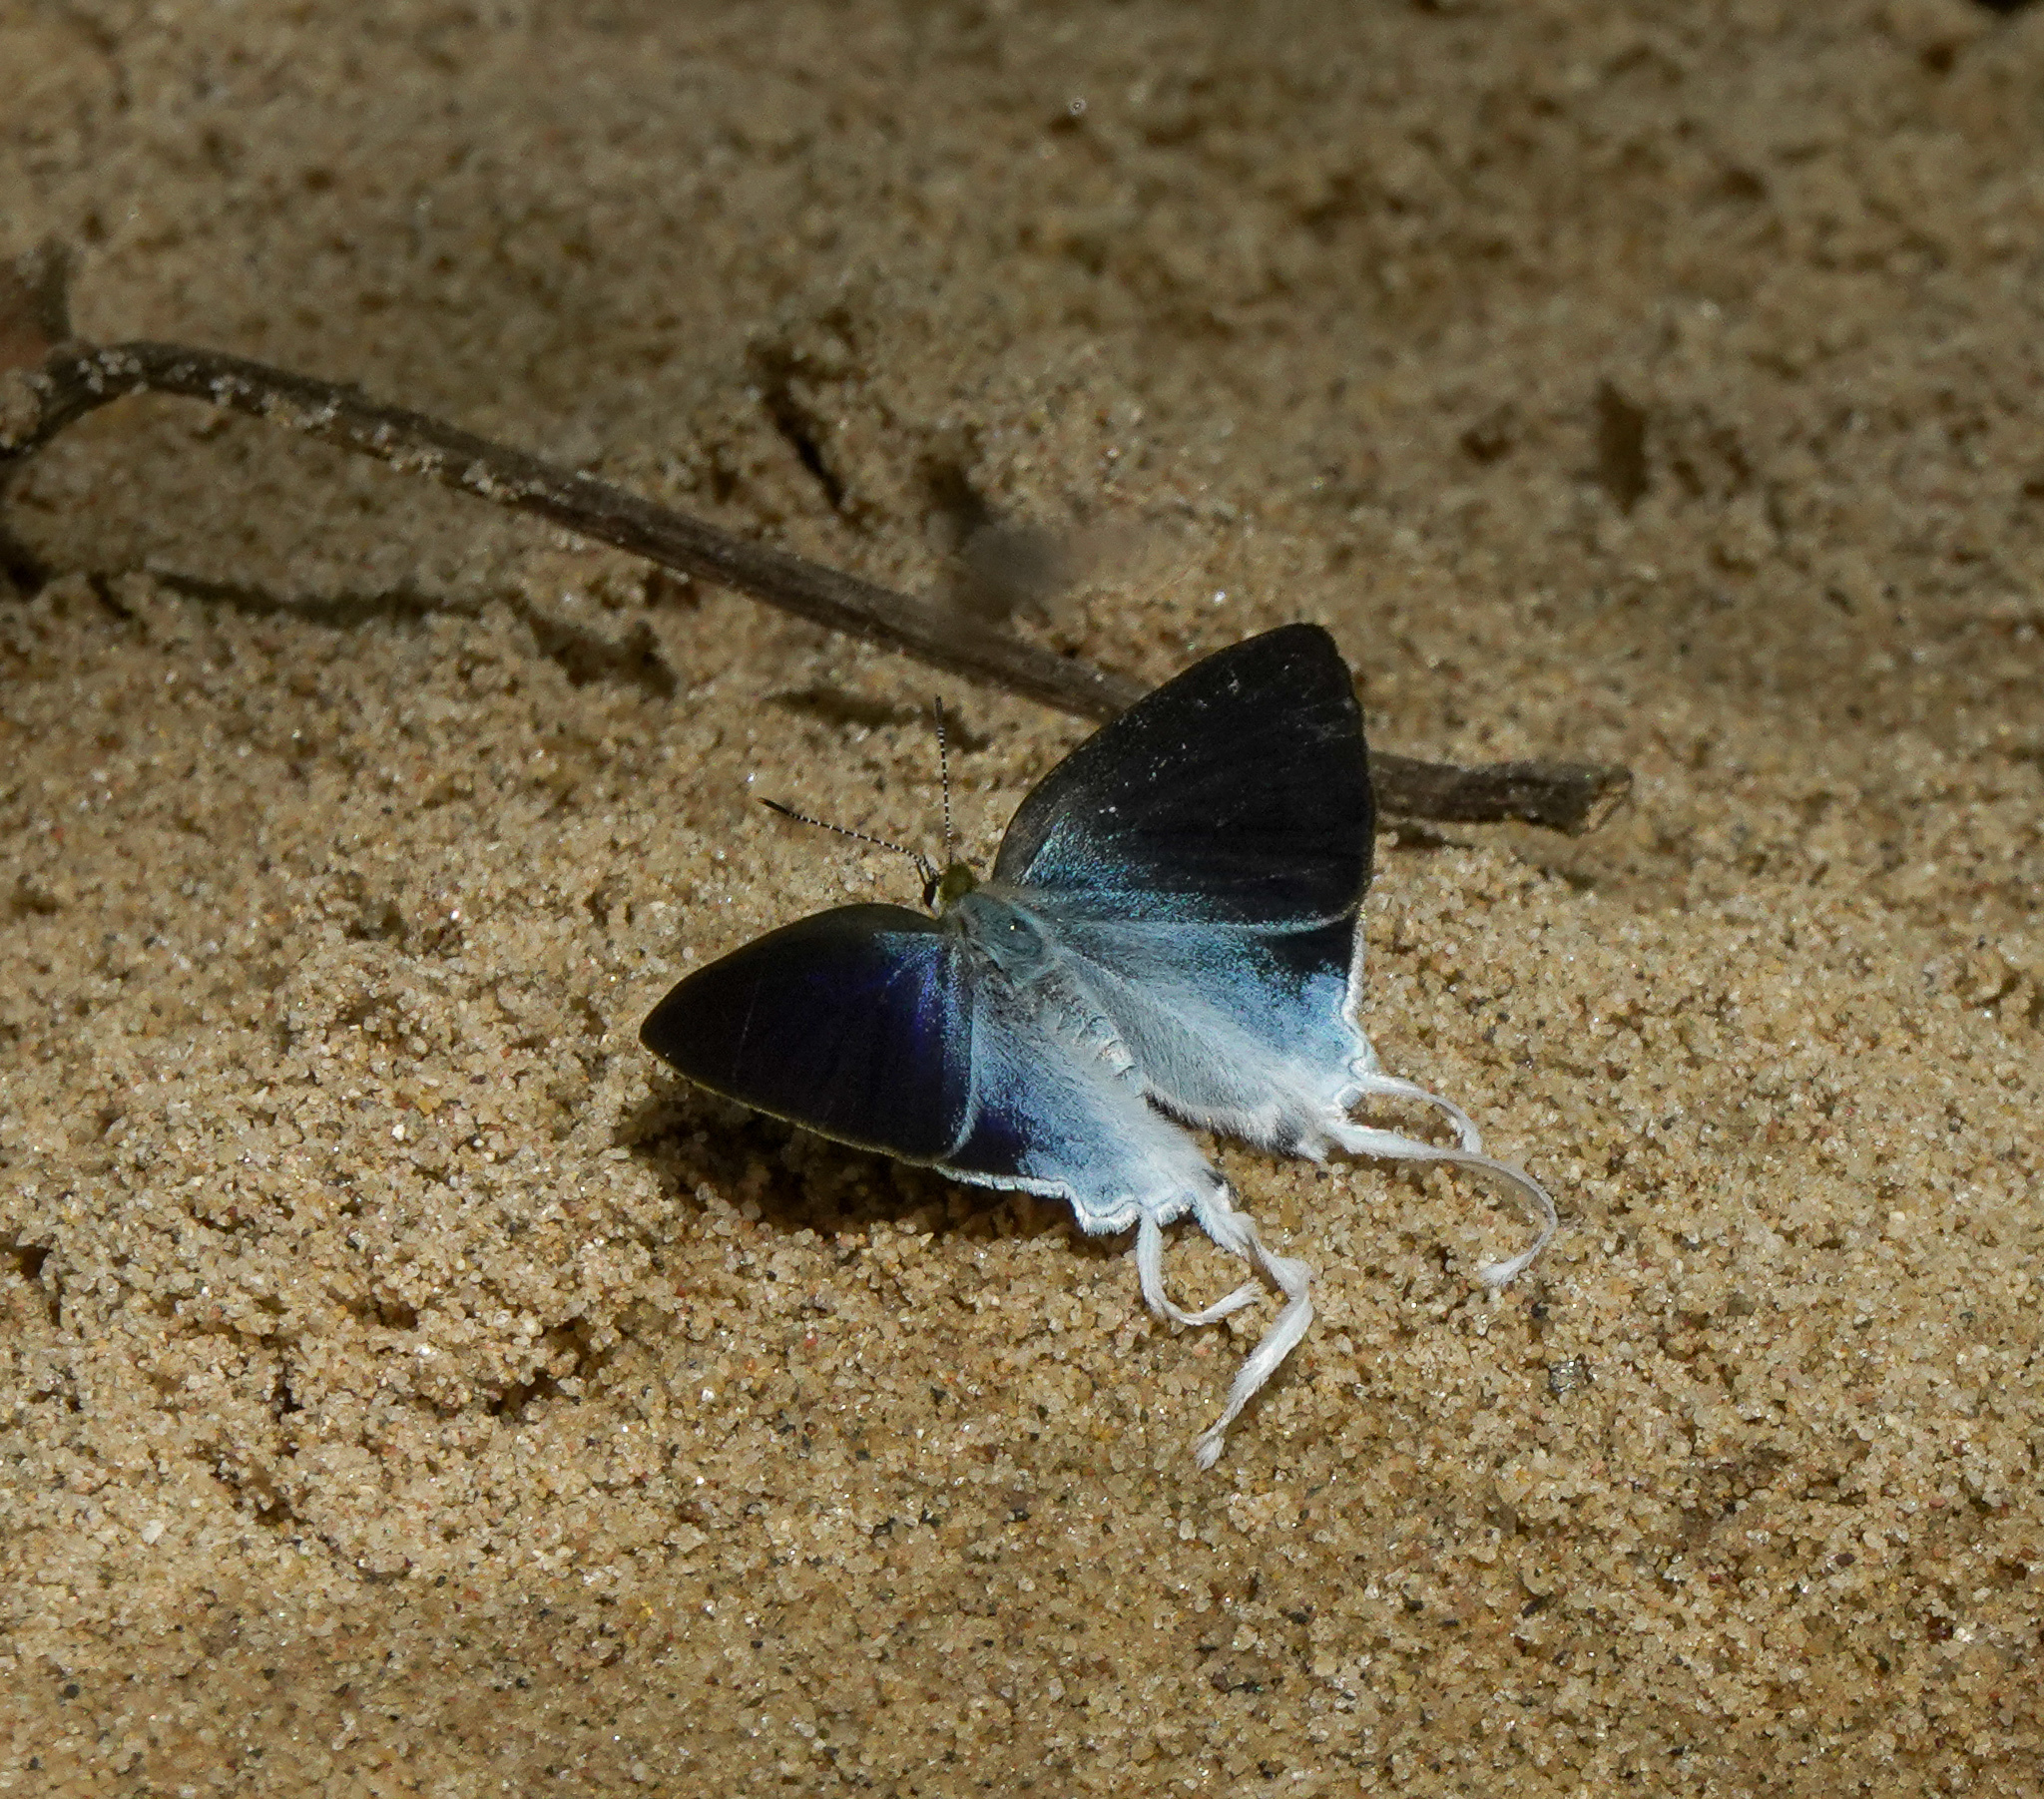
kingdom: Animalia
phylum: Arthropoda
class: Insecta
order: Lepidoptera
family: Lycaenidae
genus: Zeltus
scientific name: Zeltus amasa
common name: Fluffy tit
